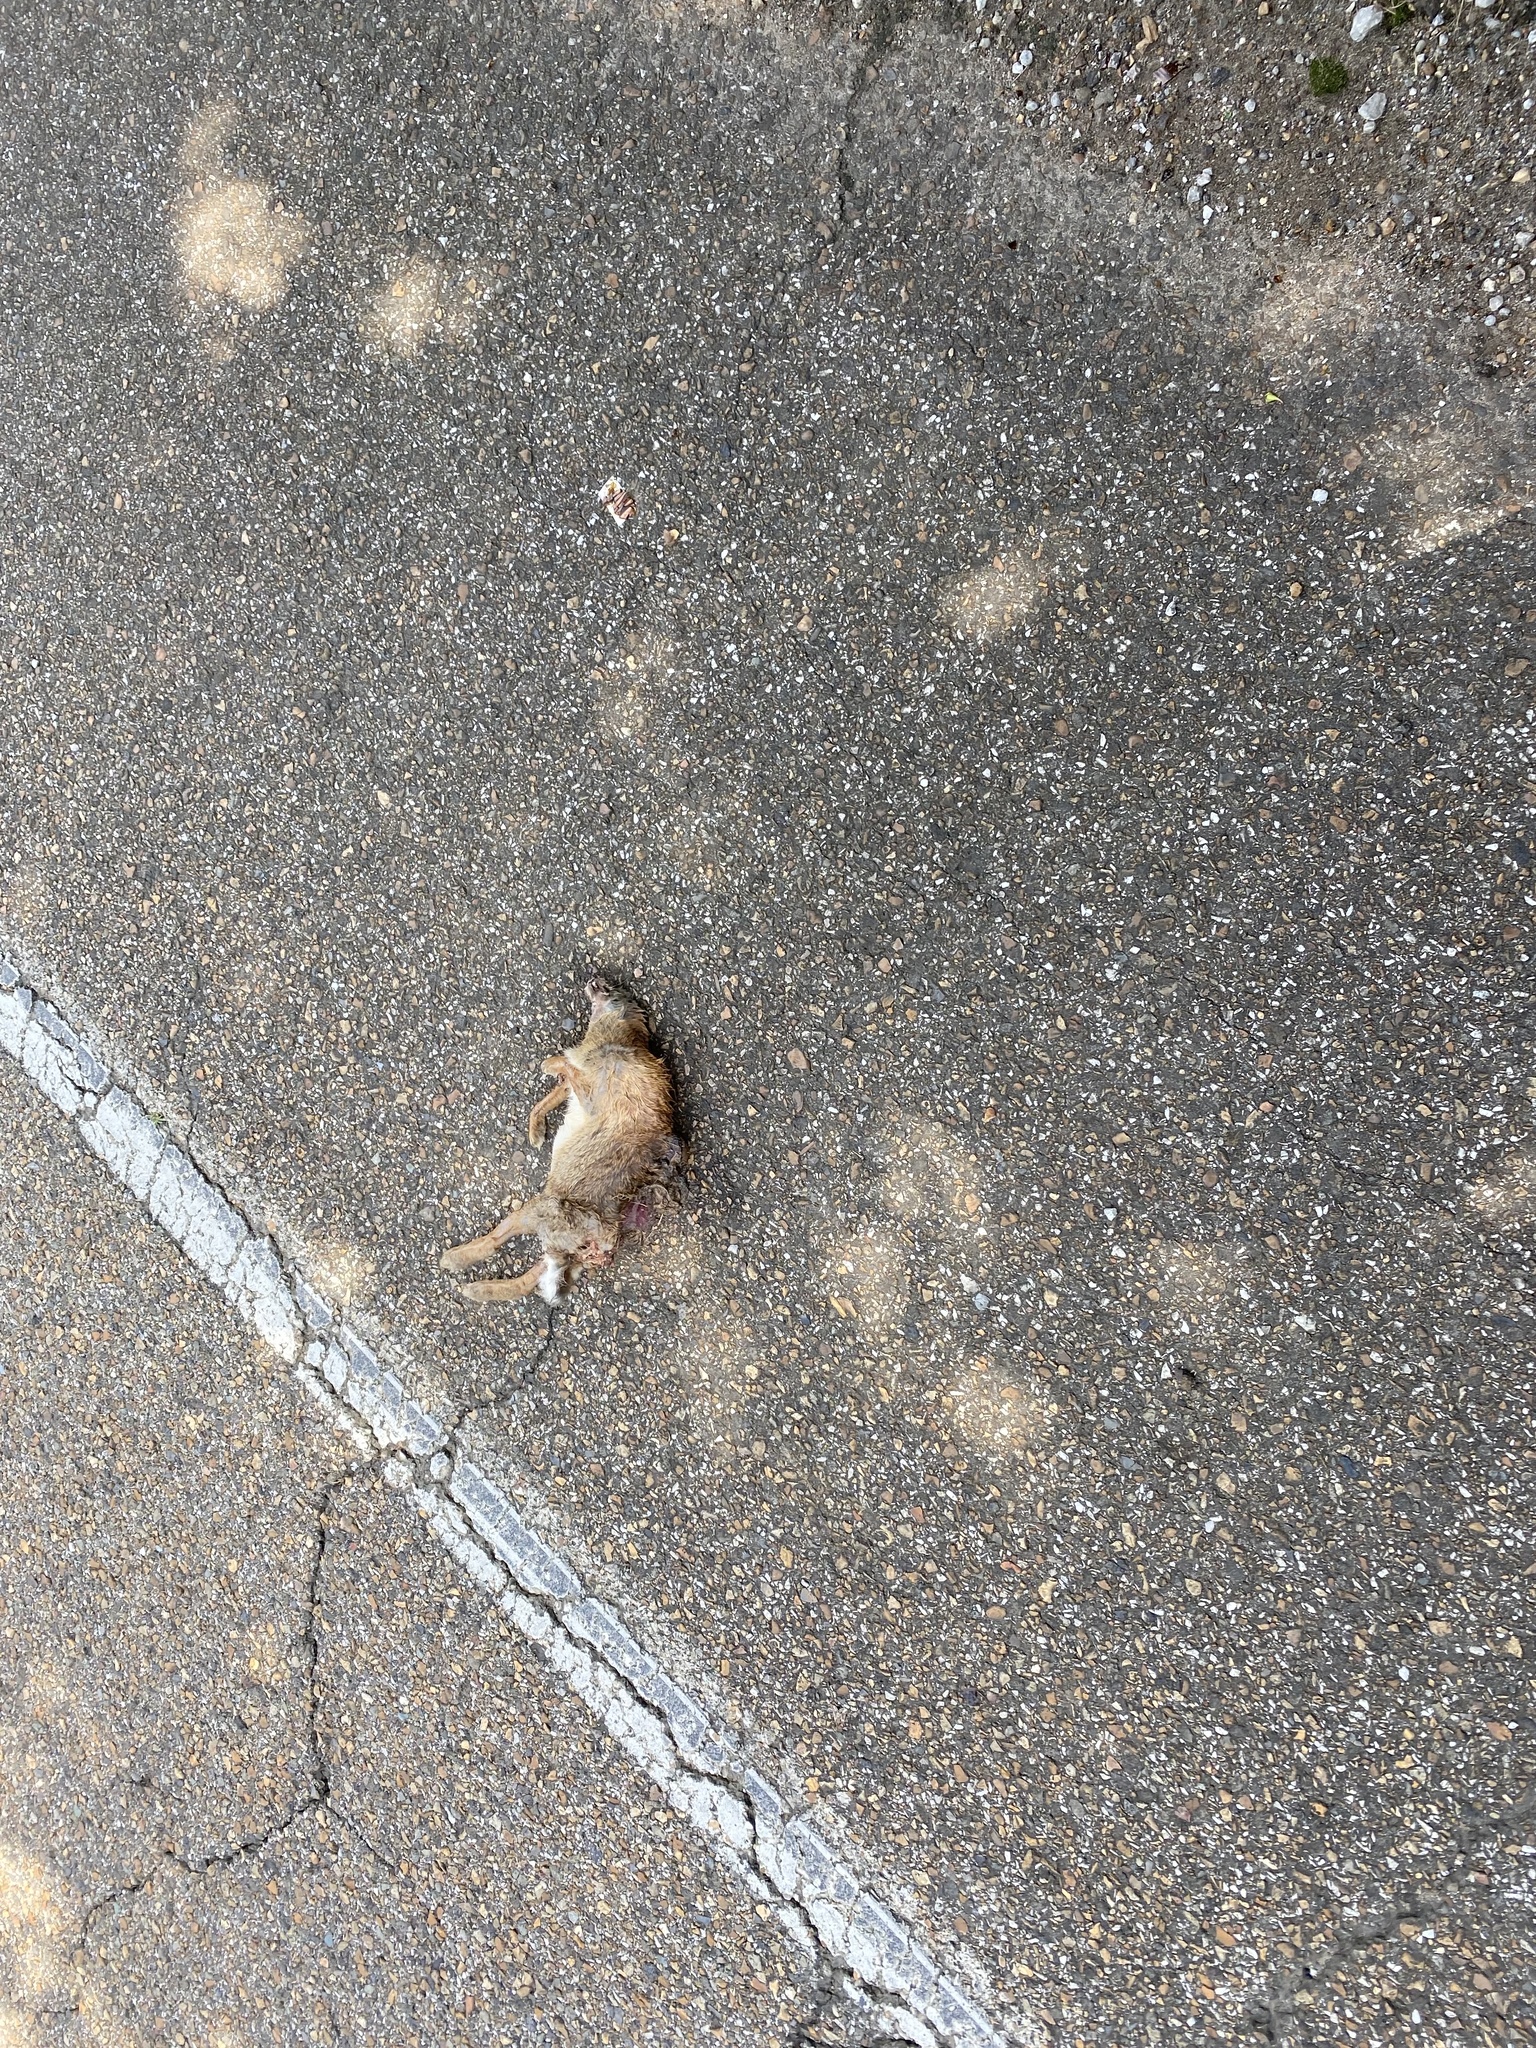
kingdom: Animalia
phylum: Chordata
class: Mammalia
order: Lagomorpha
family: Leporidae
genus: Sylvilagus
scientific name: Sylvilagus floridanus
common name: Eastern cottontail
